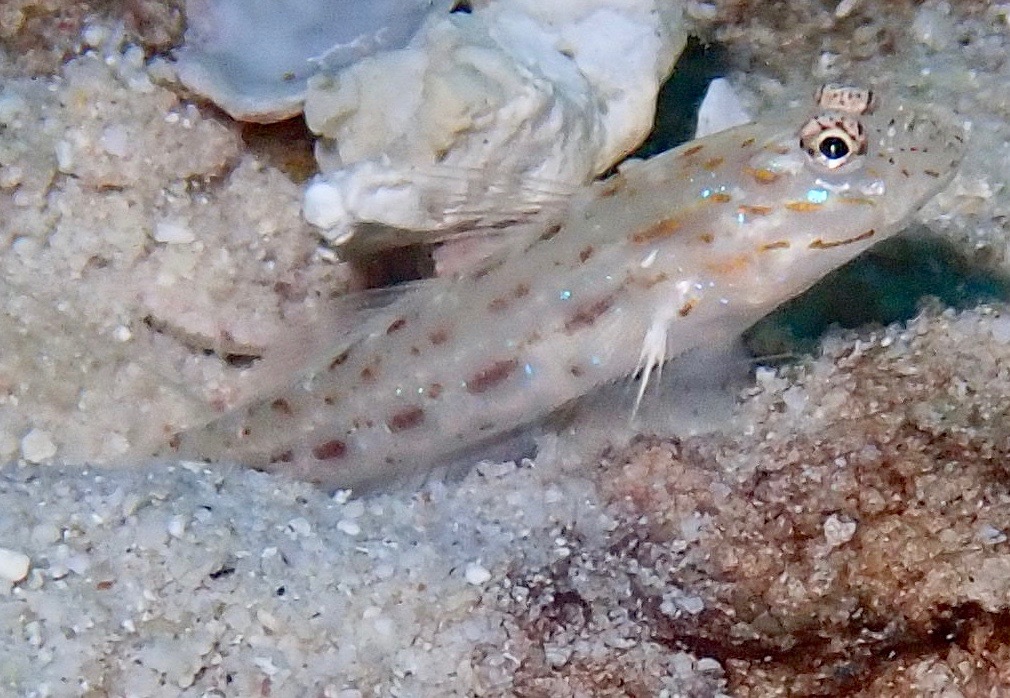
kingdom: Animalia
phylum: Chordata
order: Perciformes
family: Gobiidae
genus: Ctenogobiops
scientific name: Ctenogobiops crocineus
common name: Silverspot shrimpgoby
